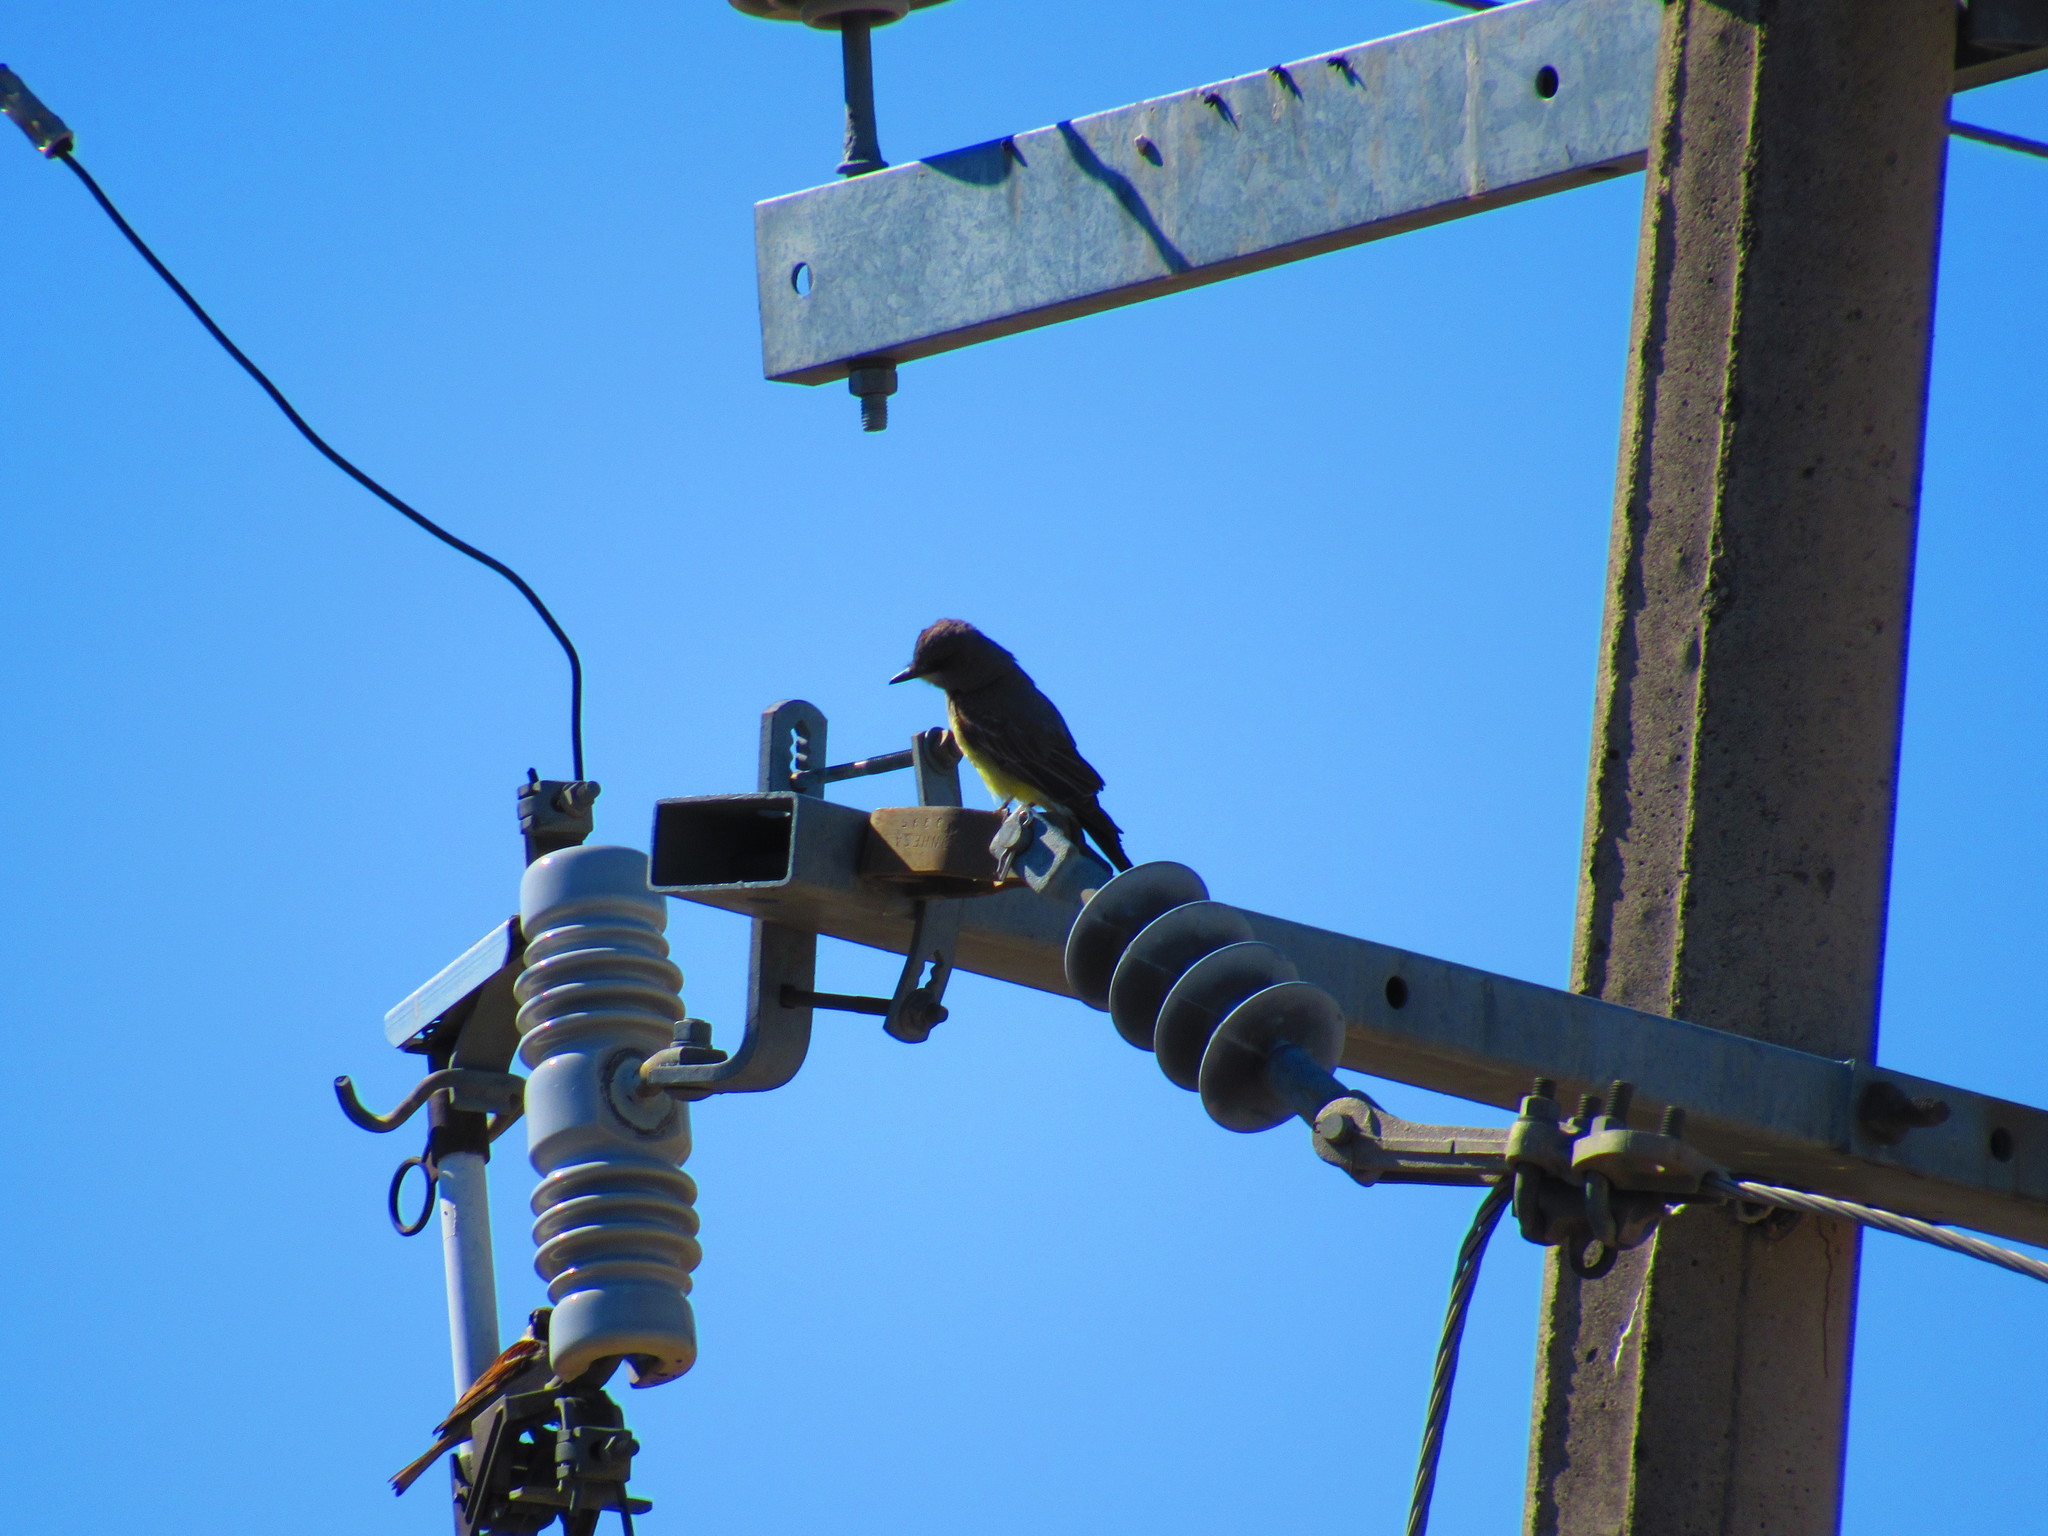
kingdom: Animalia
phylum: Chordata
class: Aves
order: Passeriformes
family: Tyrannidae
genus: Tyrannus
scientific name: Tyrannus vociferans
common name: Cassin's kingbird
